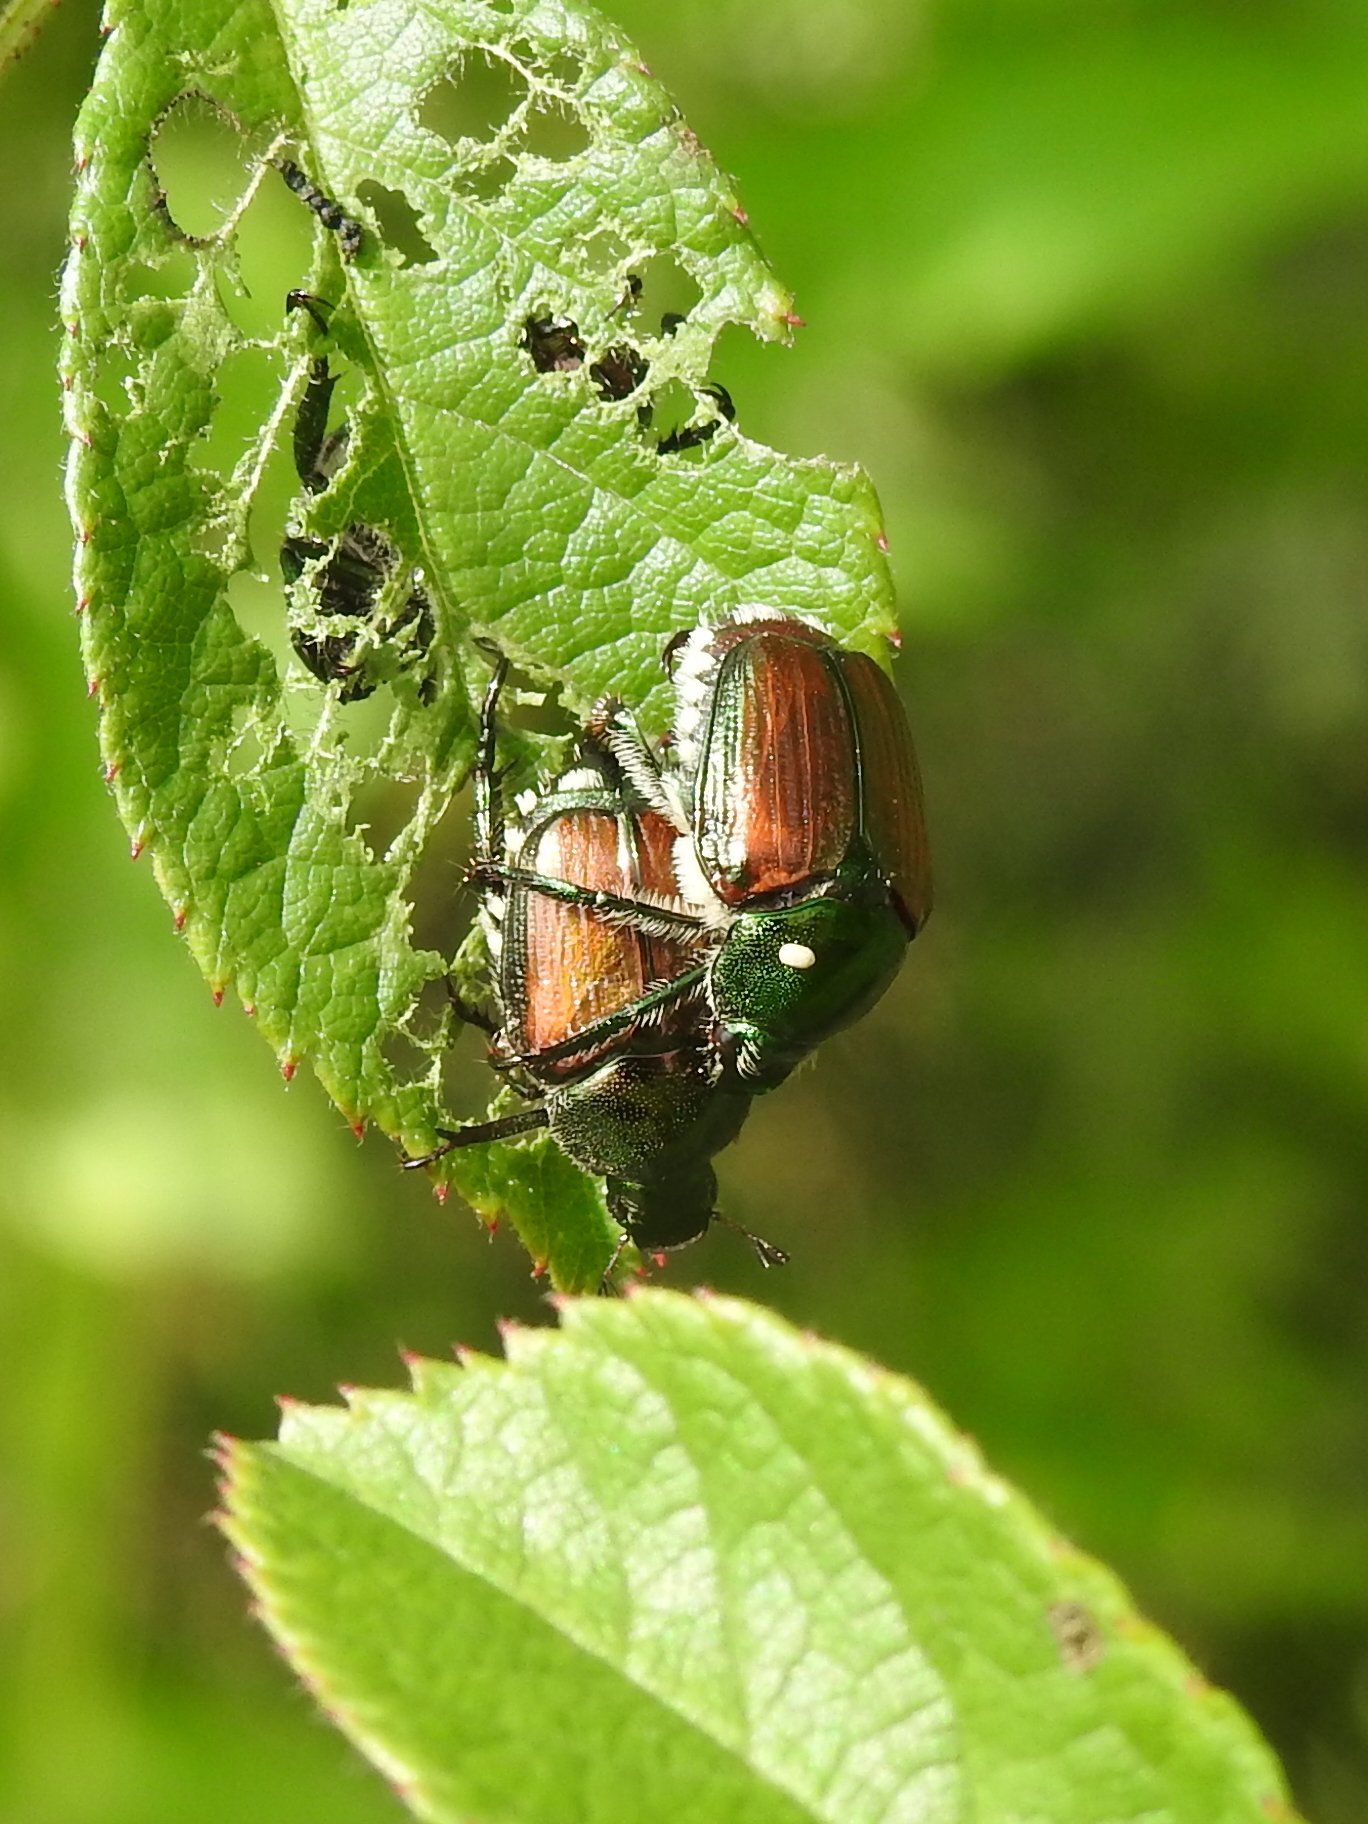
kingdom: Animalia
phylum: Arthropoda
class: Insecta
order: Coleoptera
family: Scarabaeidae
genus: Popillia
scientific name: Popillia japonica
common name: Japanese beetle
